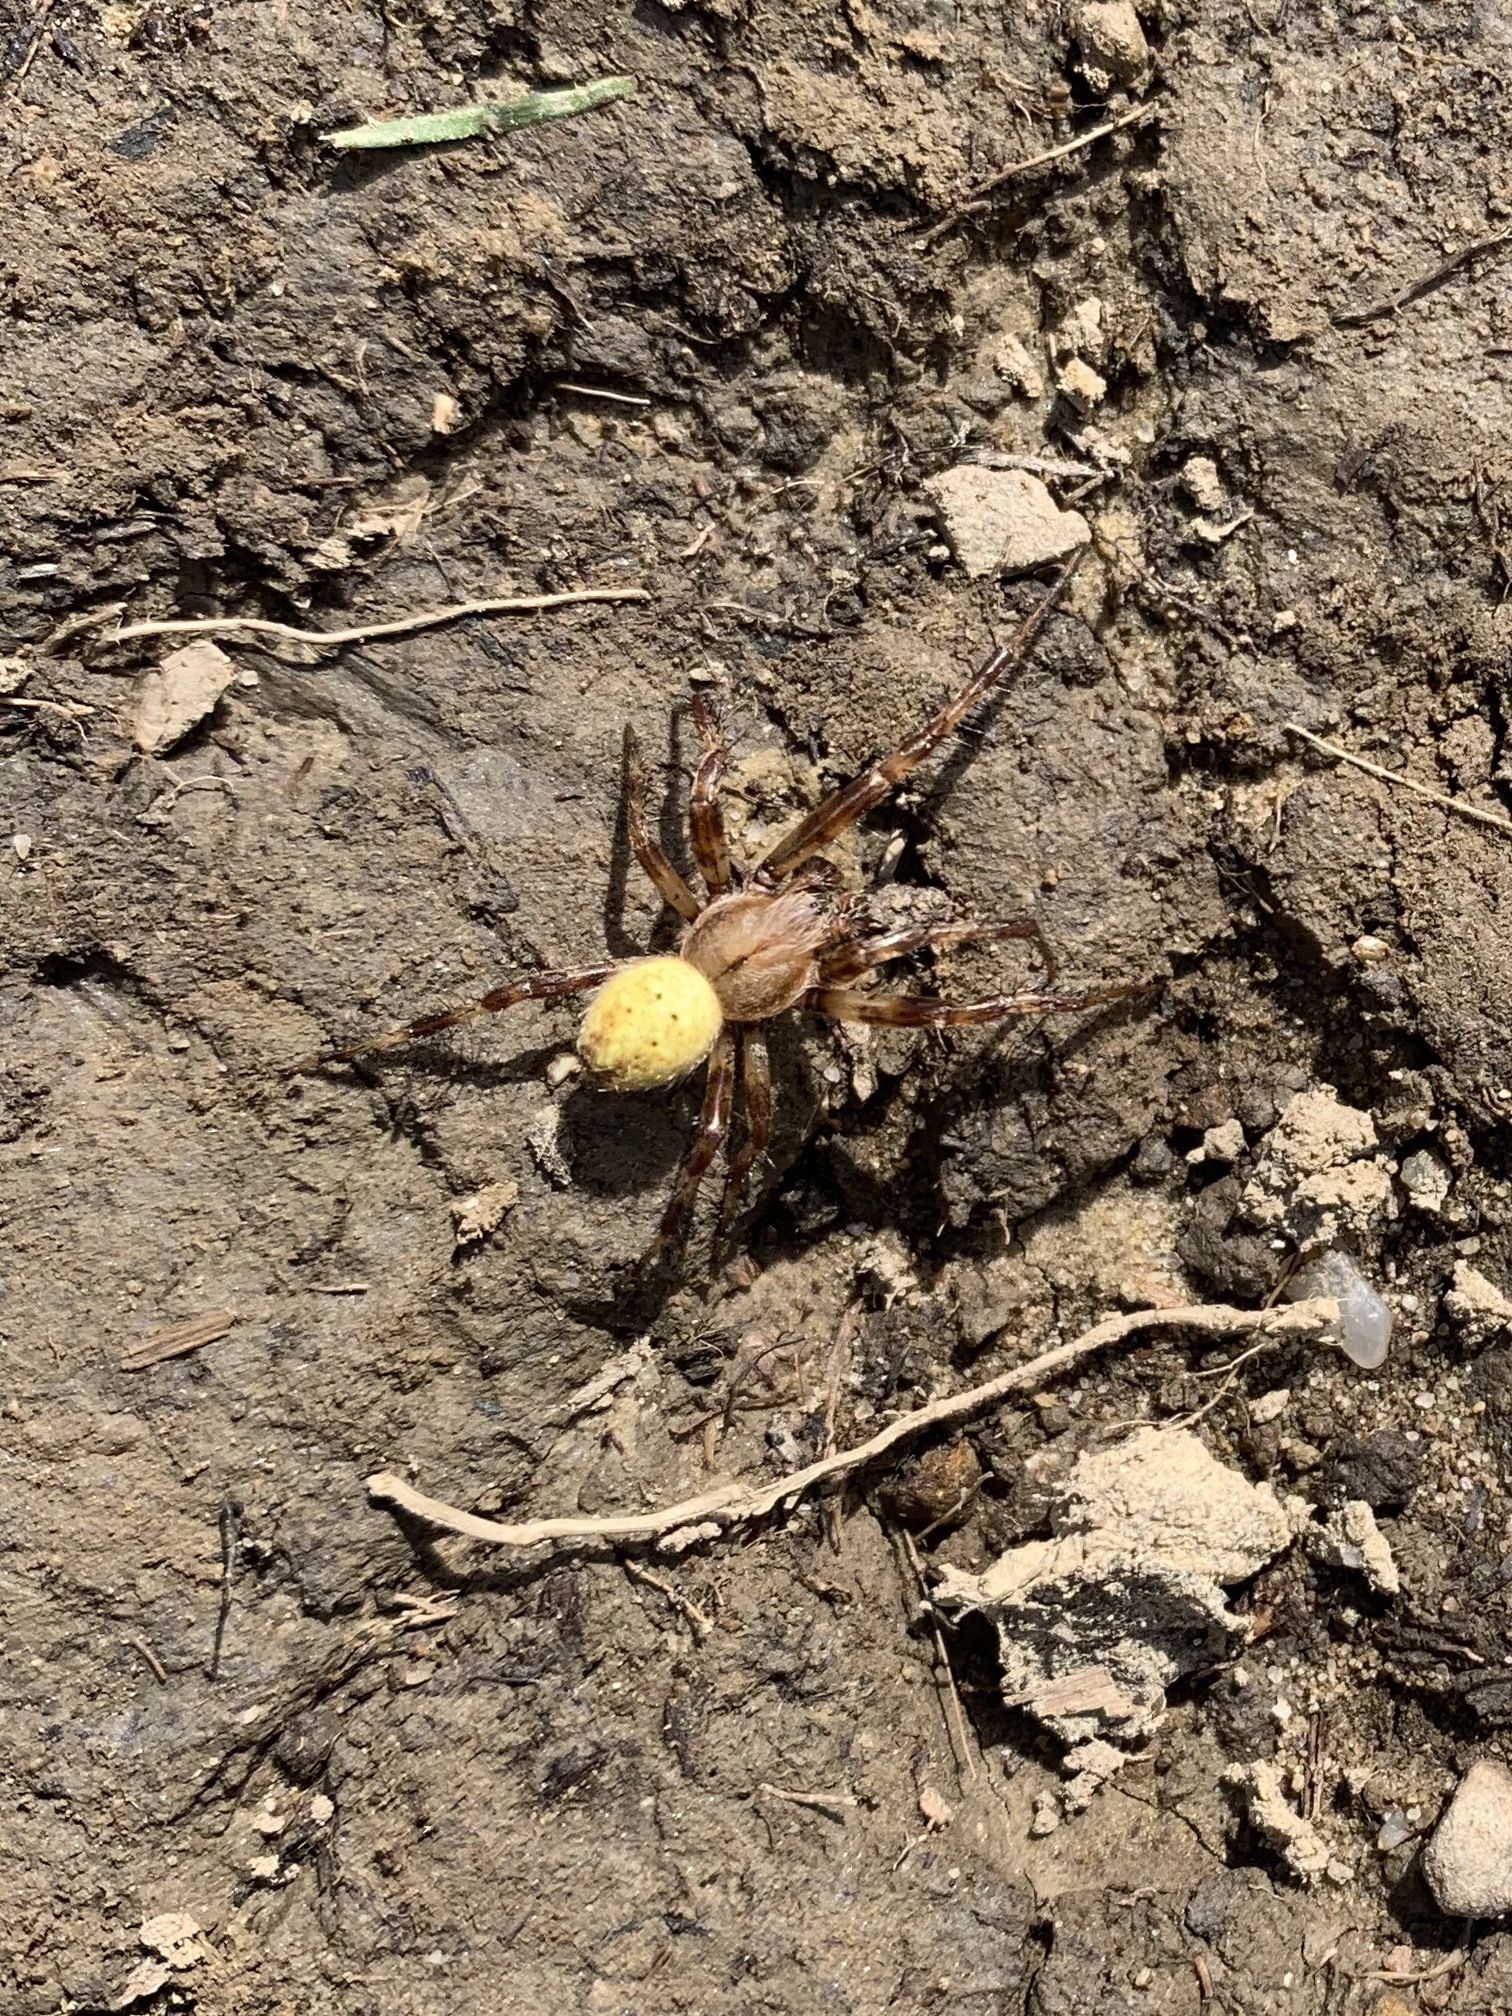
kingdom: Animalia
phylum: Arthropoda
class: Arachnida
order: Araneae
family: Araneidae
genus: Araneus
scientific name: Araneus quadratus
